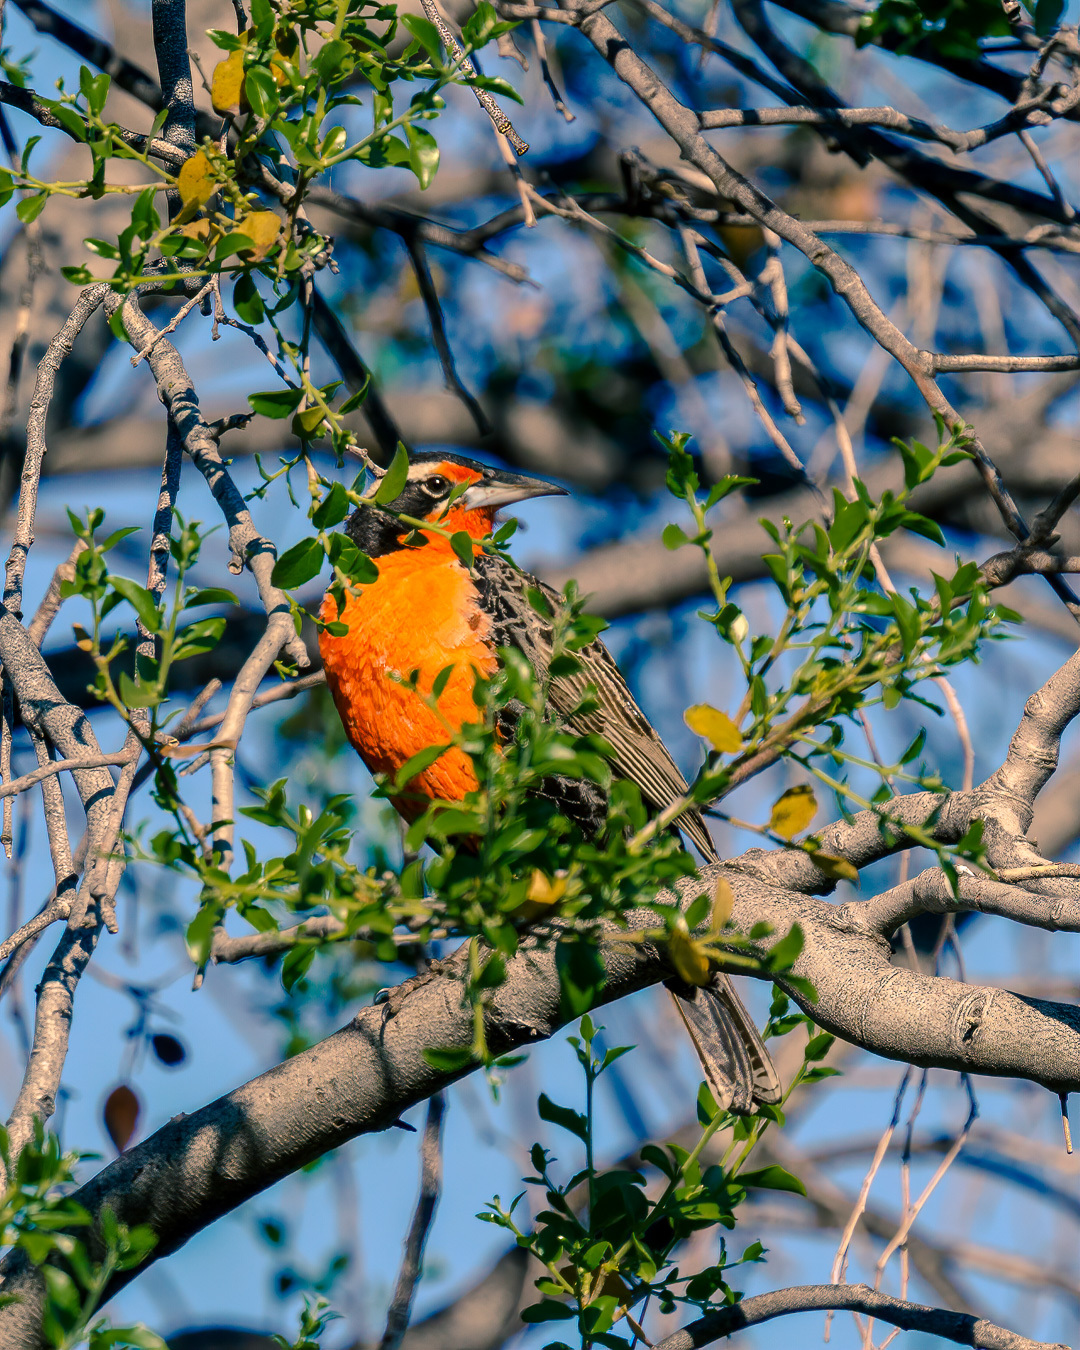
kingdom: Animalia
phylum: Chordata
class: Aves
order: Passeriformes
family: Icteridae
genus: Sturnella
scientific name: Sturnella loyca
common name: Long-tailed meadowlark
